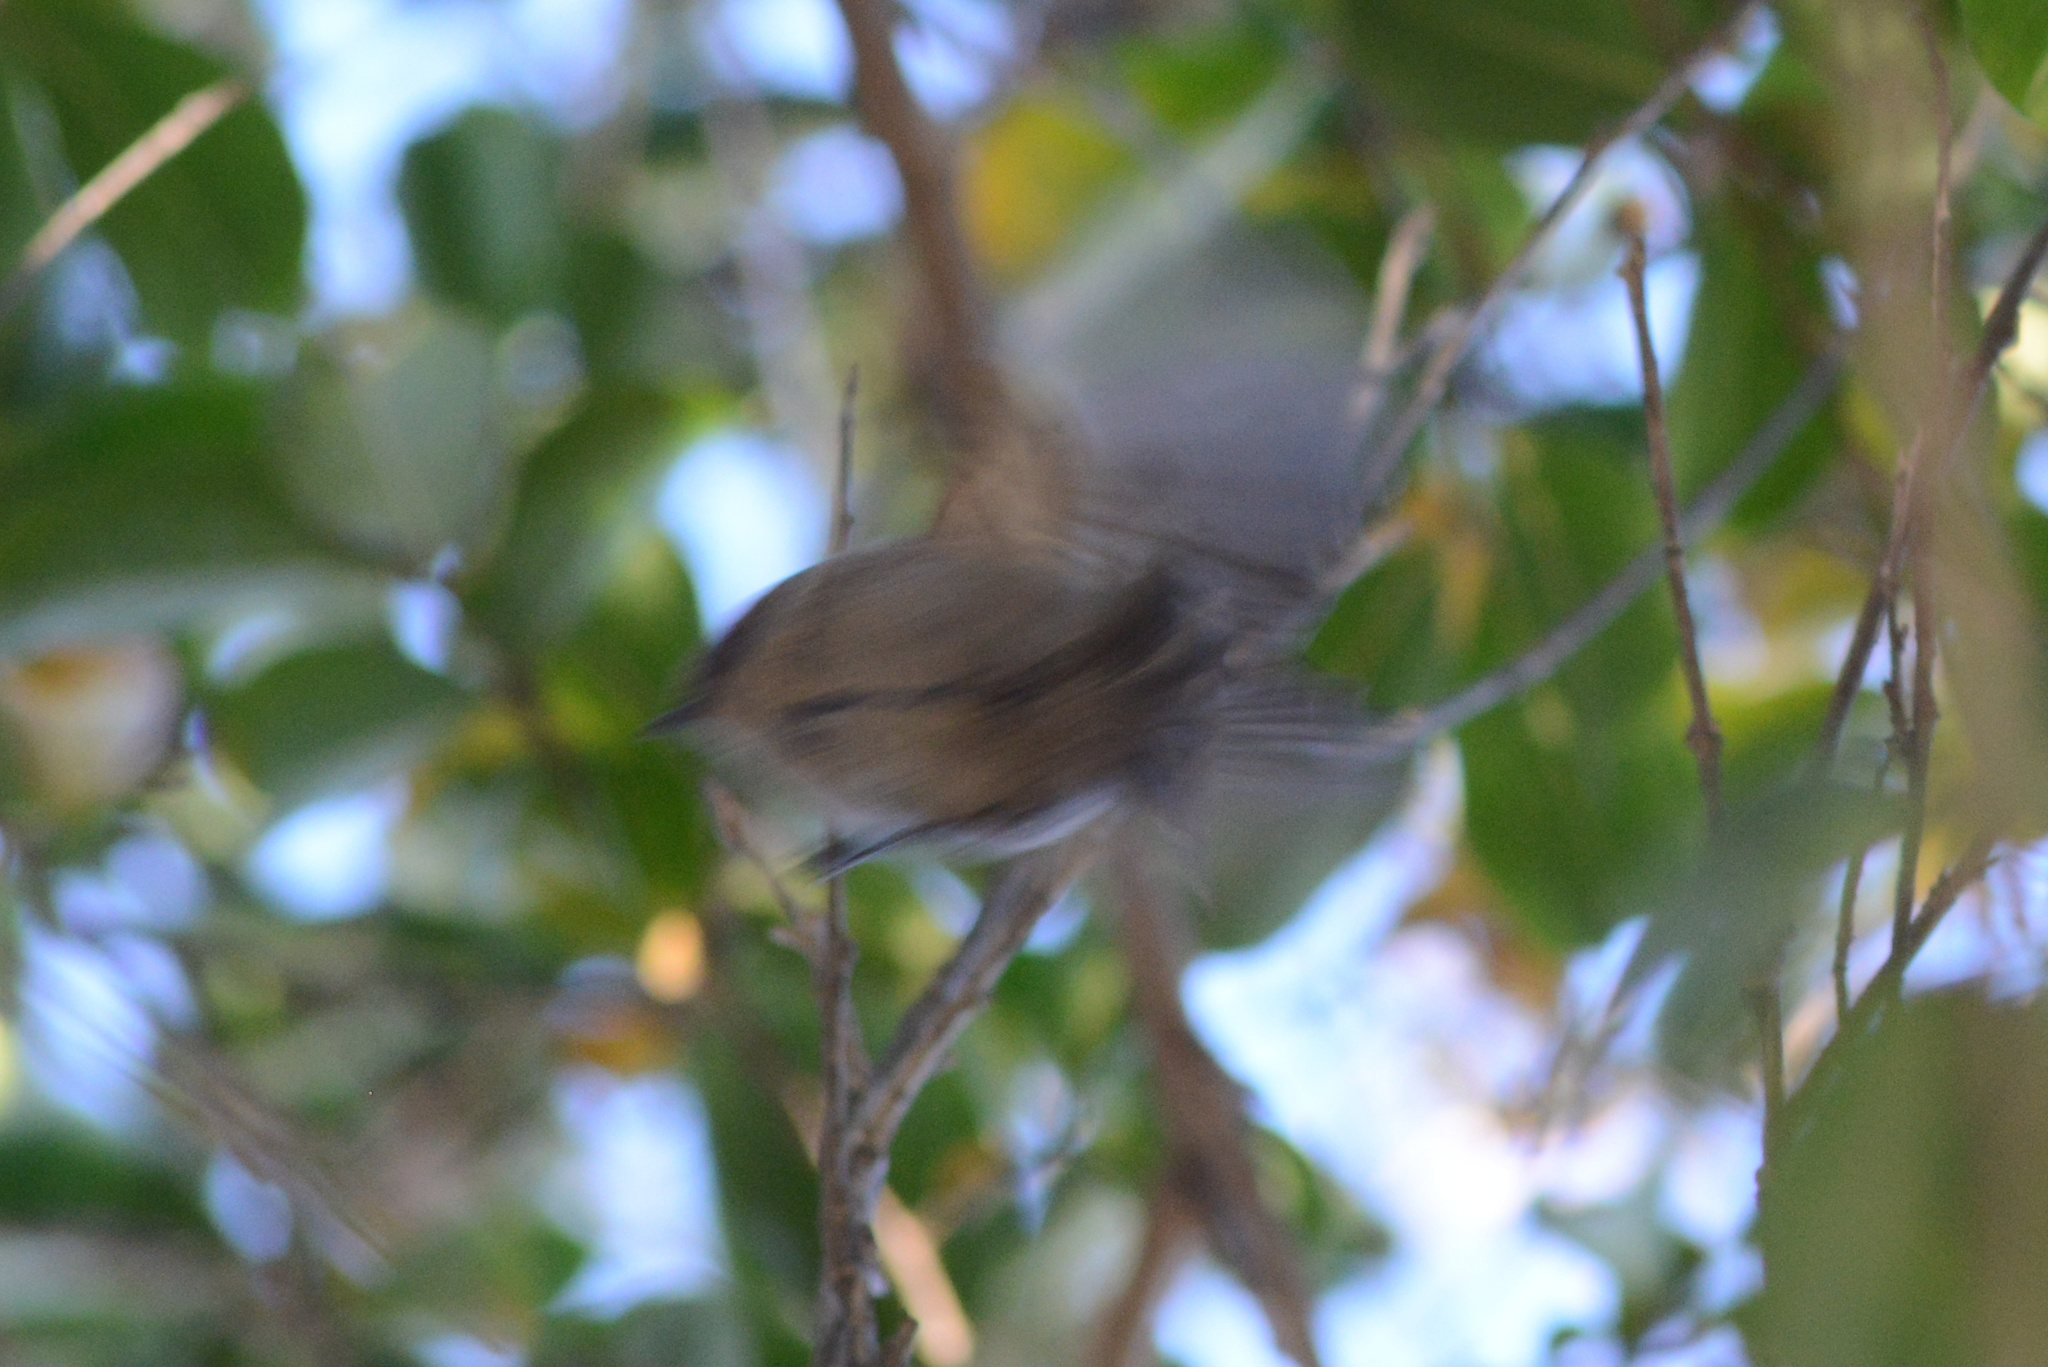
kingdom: Animalia
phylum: Chordata
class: Aves
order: Passeriformes
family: Aegithalidae
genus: Psaltriparus
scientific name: Psaltriparus minimus
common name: American bushtit
